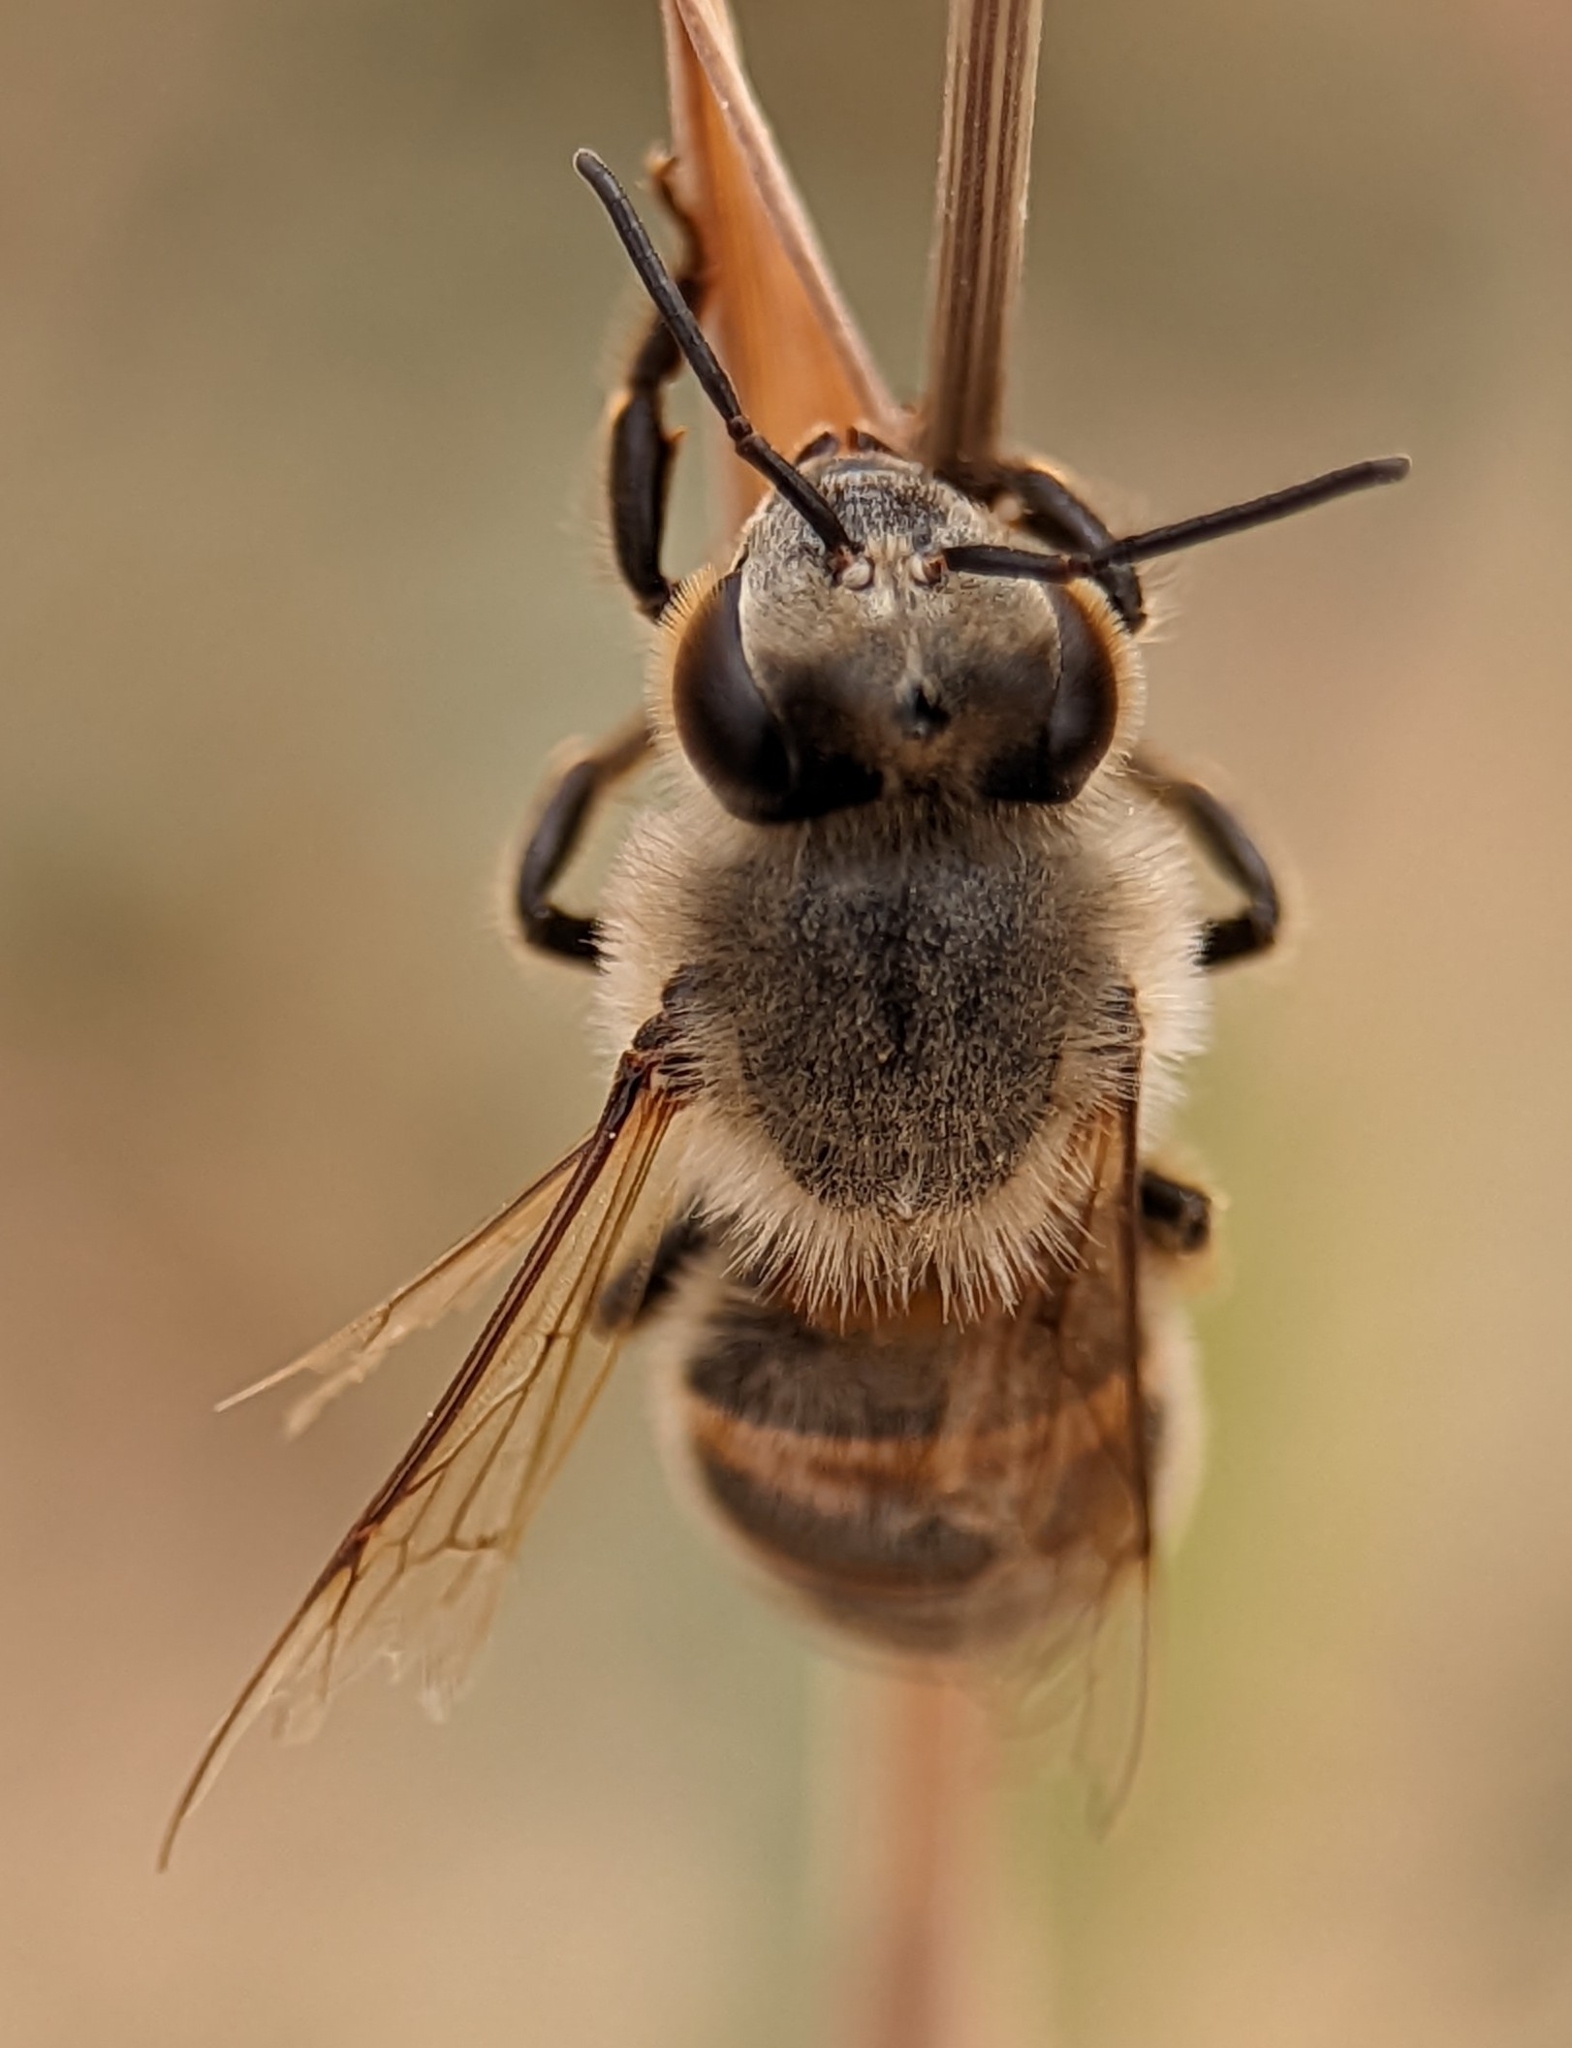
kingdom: Animalia
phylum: Arthropoda
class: Insecta
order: Hymenoptera
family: Apidae
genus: Apis
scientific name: Apis mellifera
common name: Honey bee
